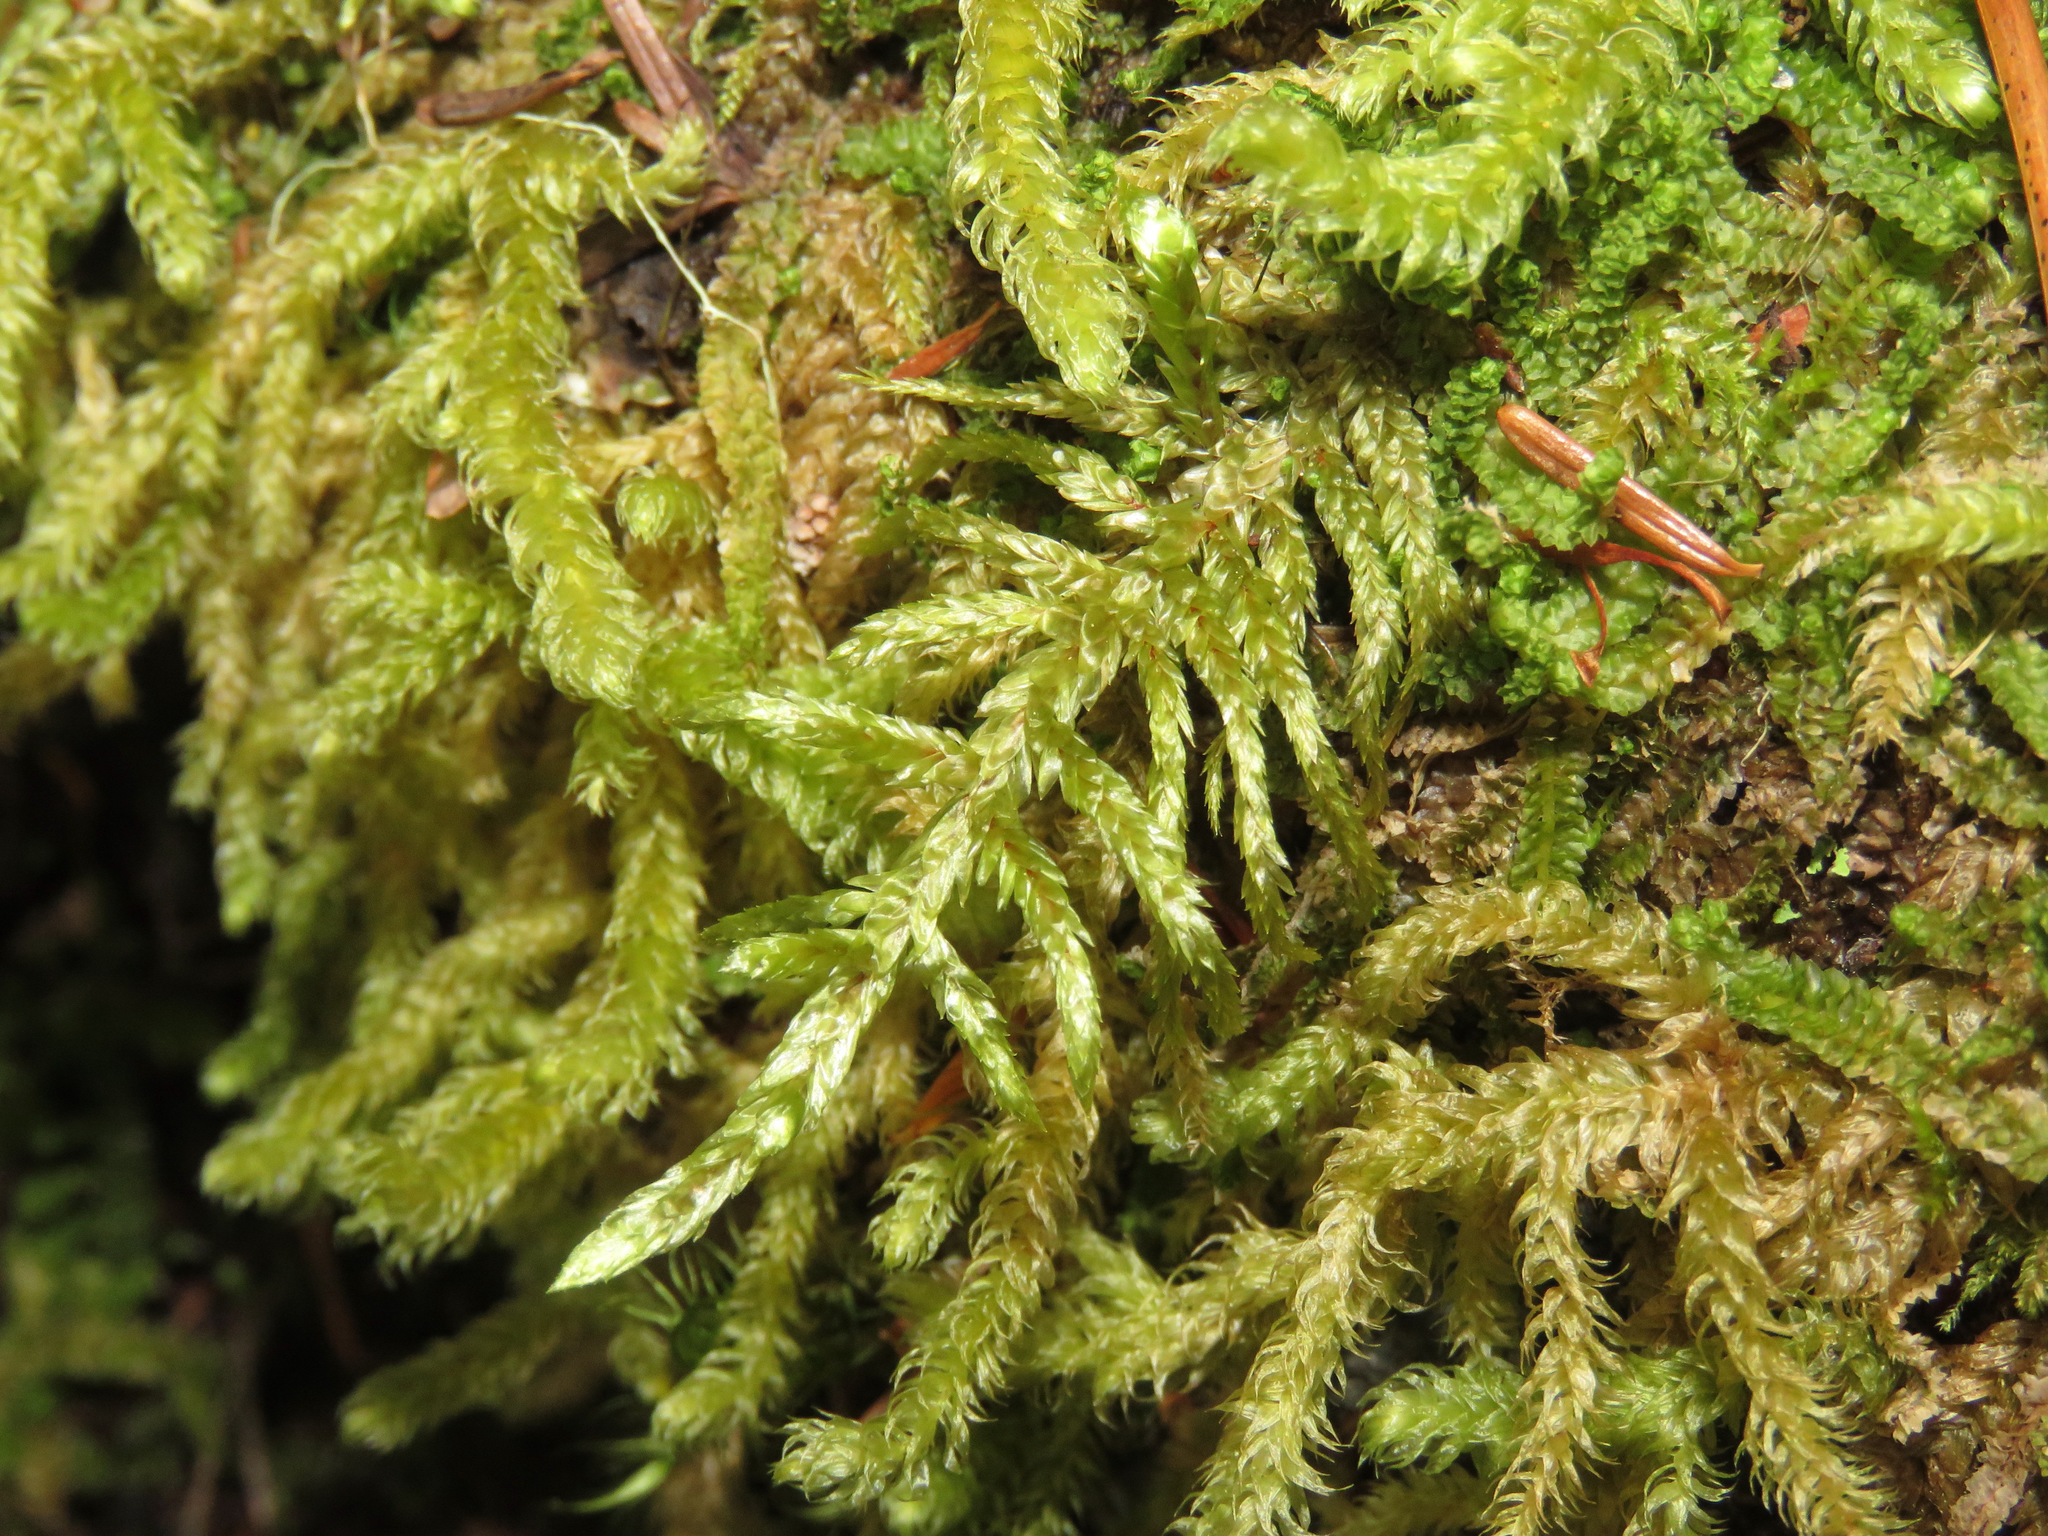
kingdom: Plantae
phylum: Bryophyta
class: Bryopsida
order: Hypnales
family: Hylocomiaceae
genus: Pleurozium
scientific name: Pleurozium schreberi
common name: Red-stemmed feather moss
